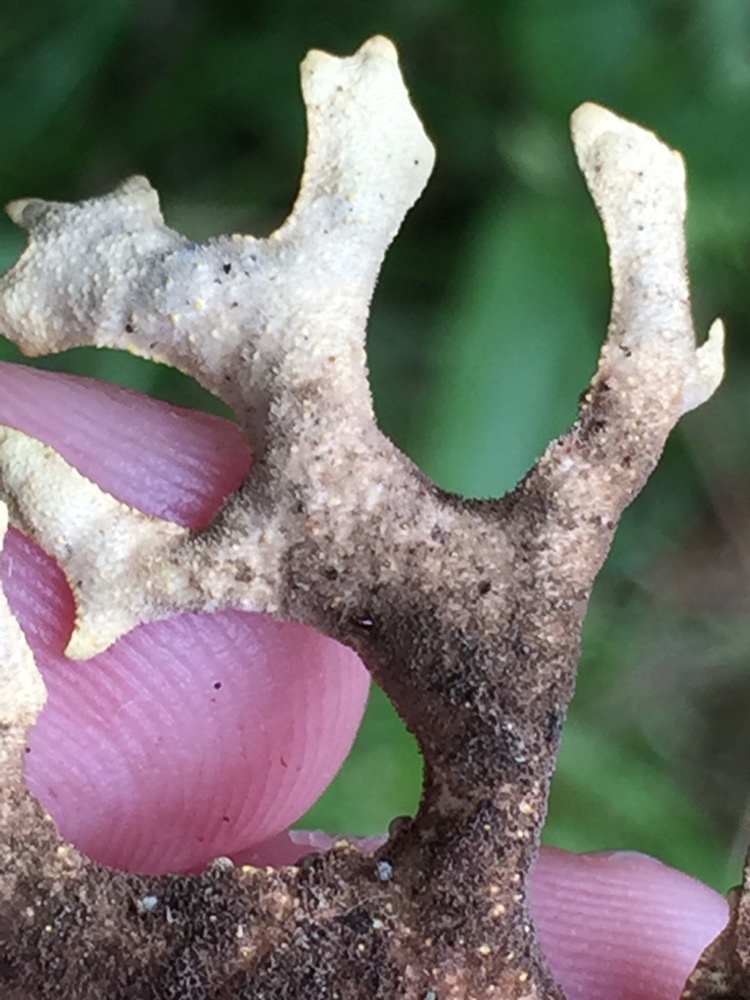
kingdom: Fungi
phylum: Ascomycota
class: Lecanoromycetes
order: Peltigerales
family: Lobariaceae
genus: Pseudocyphellaria
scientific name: Pseudocyphellaria carpoloma
